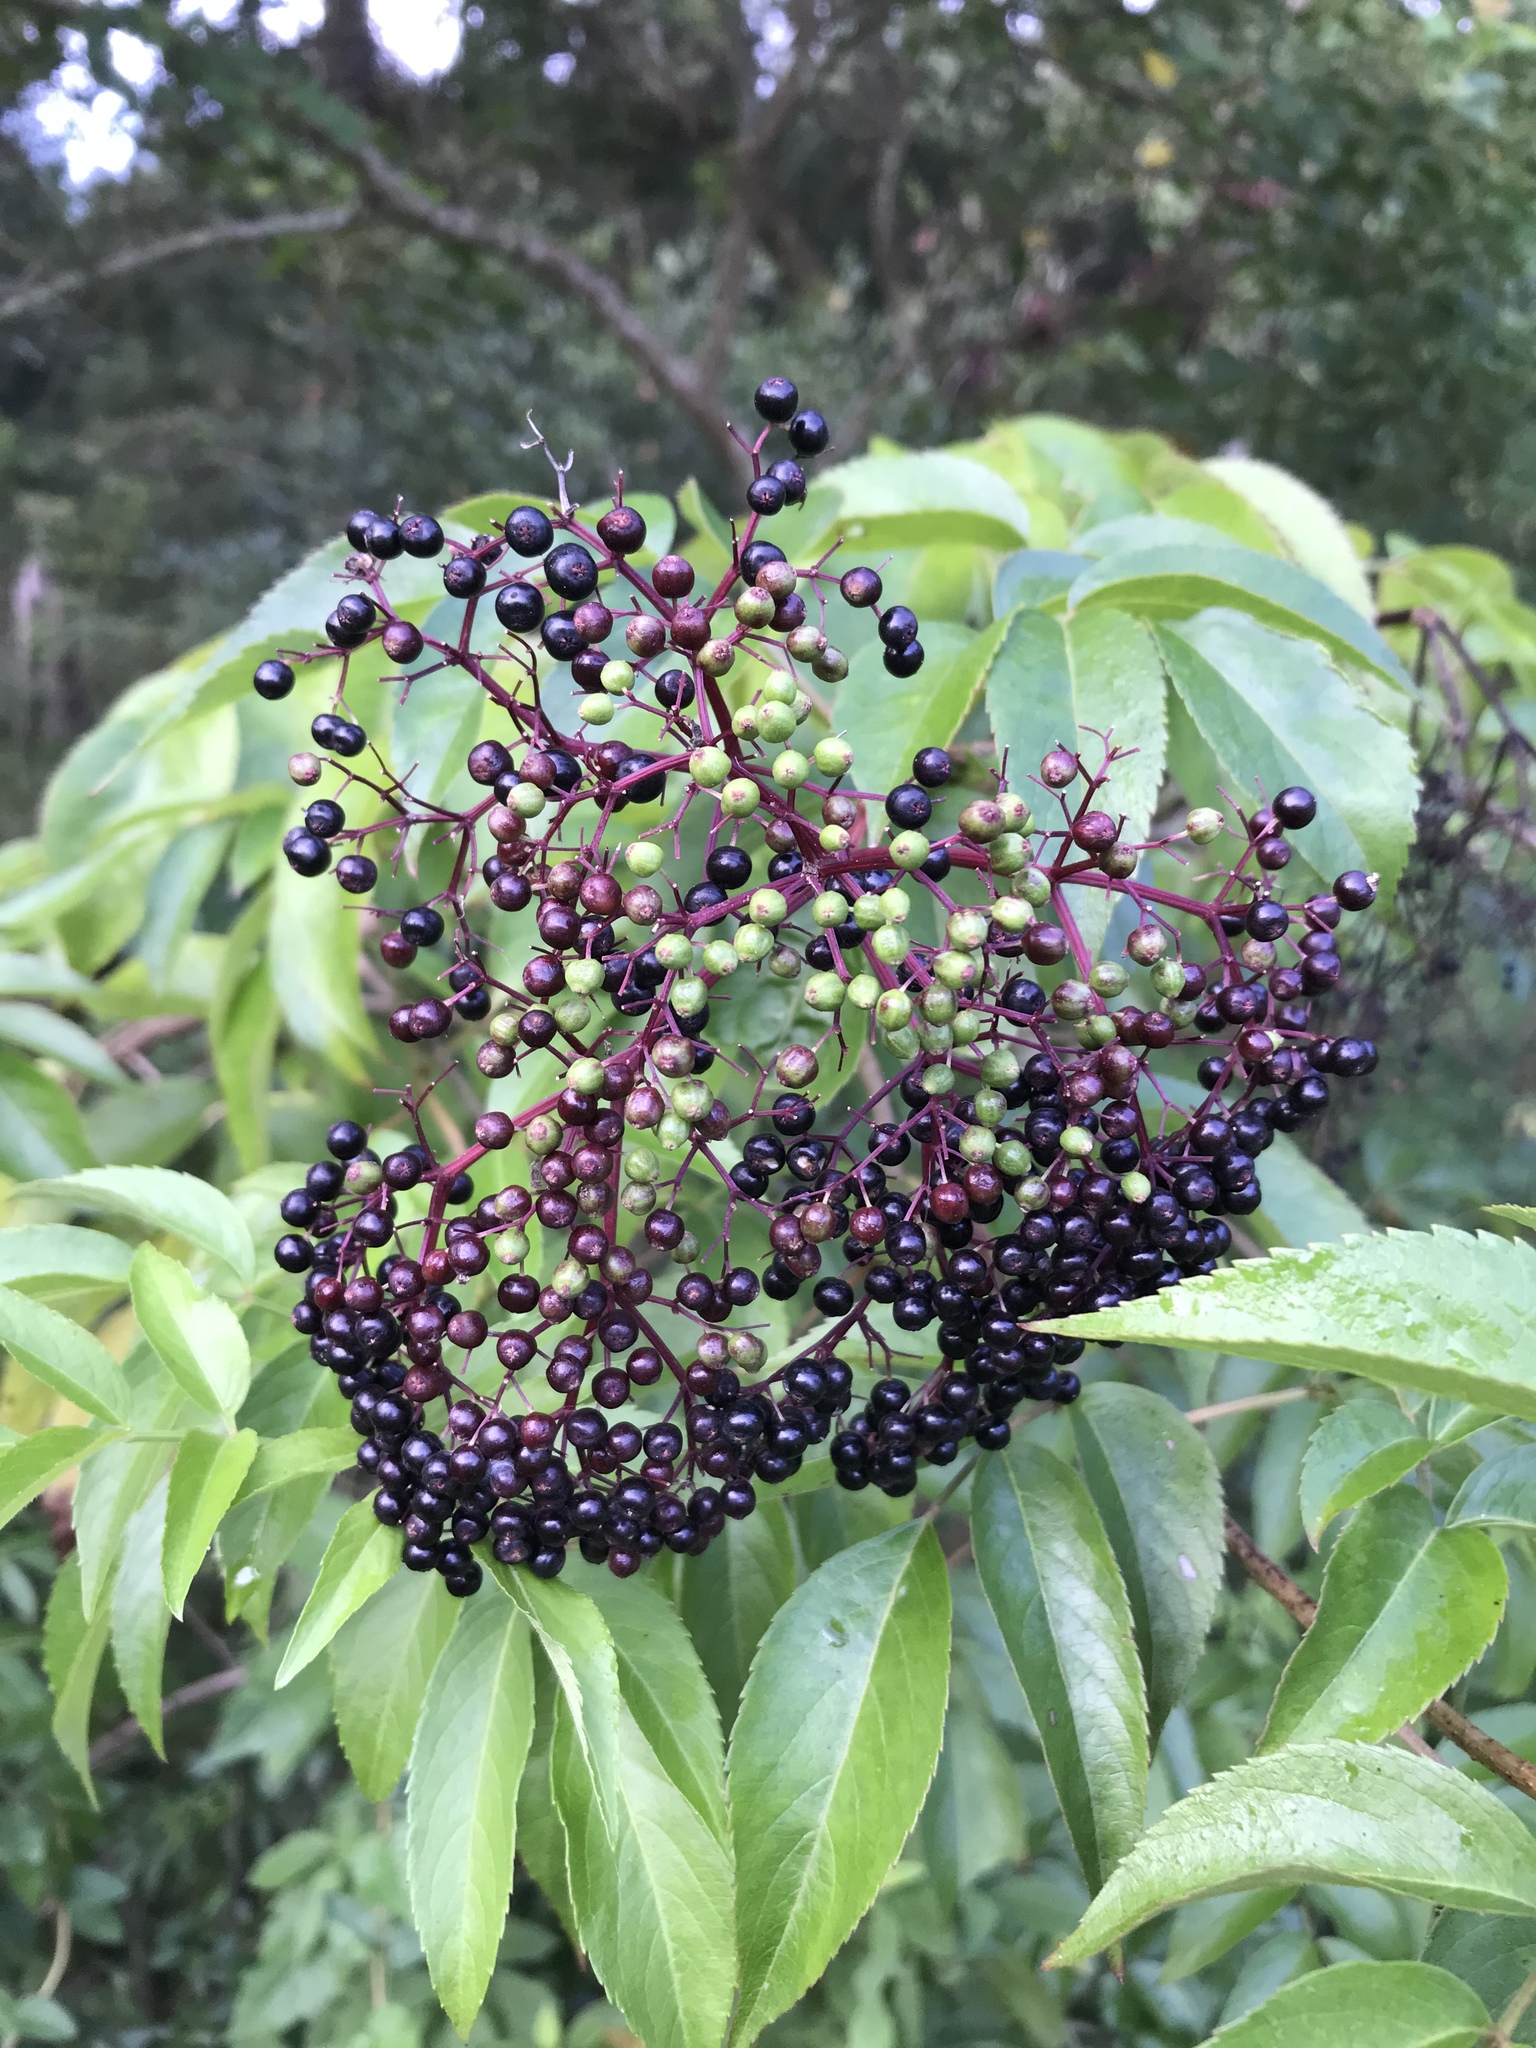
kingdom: Plantae
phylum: Tracheophyta
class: Magnoliopsida
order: Dipsacales
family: Viburnaceae
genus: Sambucus
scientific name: Sambucus canadensis
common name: American elder
